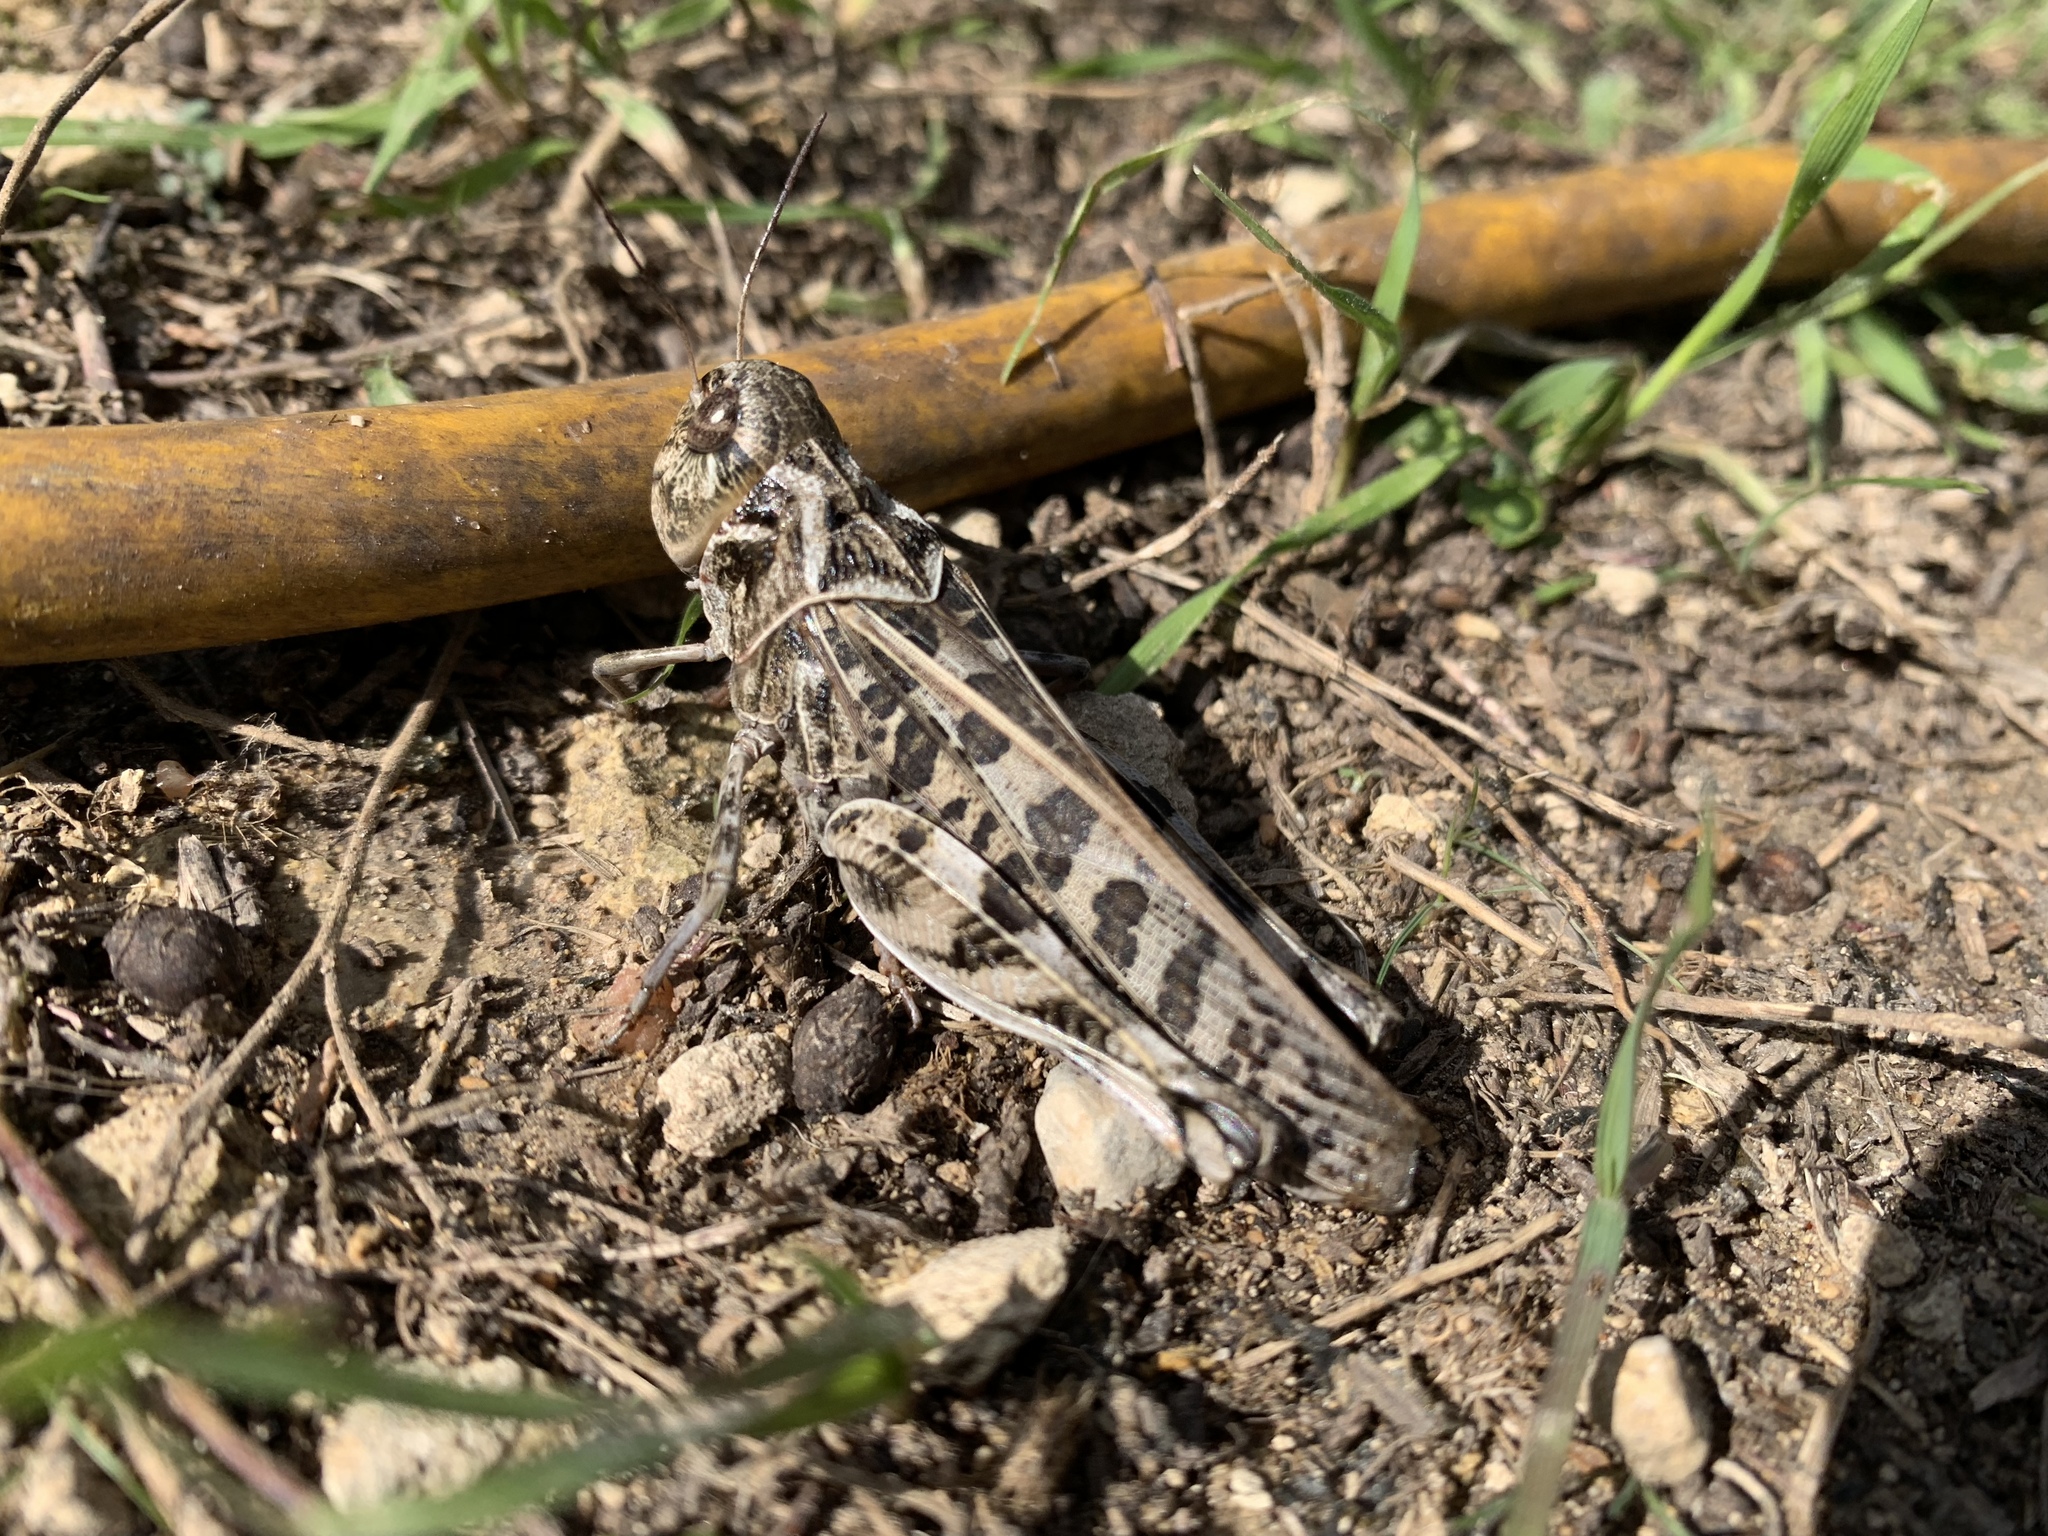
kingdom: Animalia
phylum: Arthropoda
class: Insecta
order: Orthoptera
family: Acrididae
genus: Hippiscus
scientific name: Hippiscus ocelote
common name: Wrinkled grasshopper
